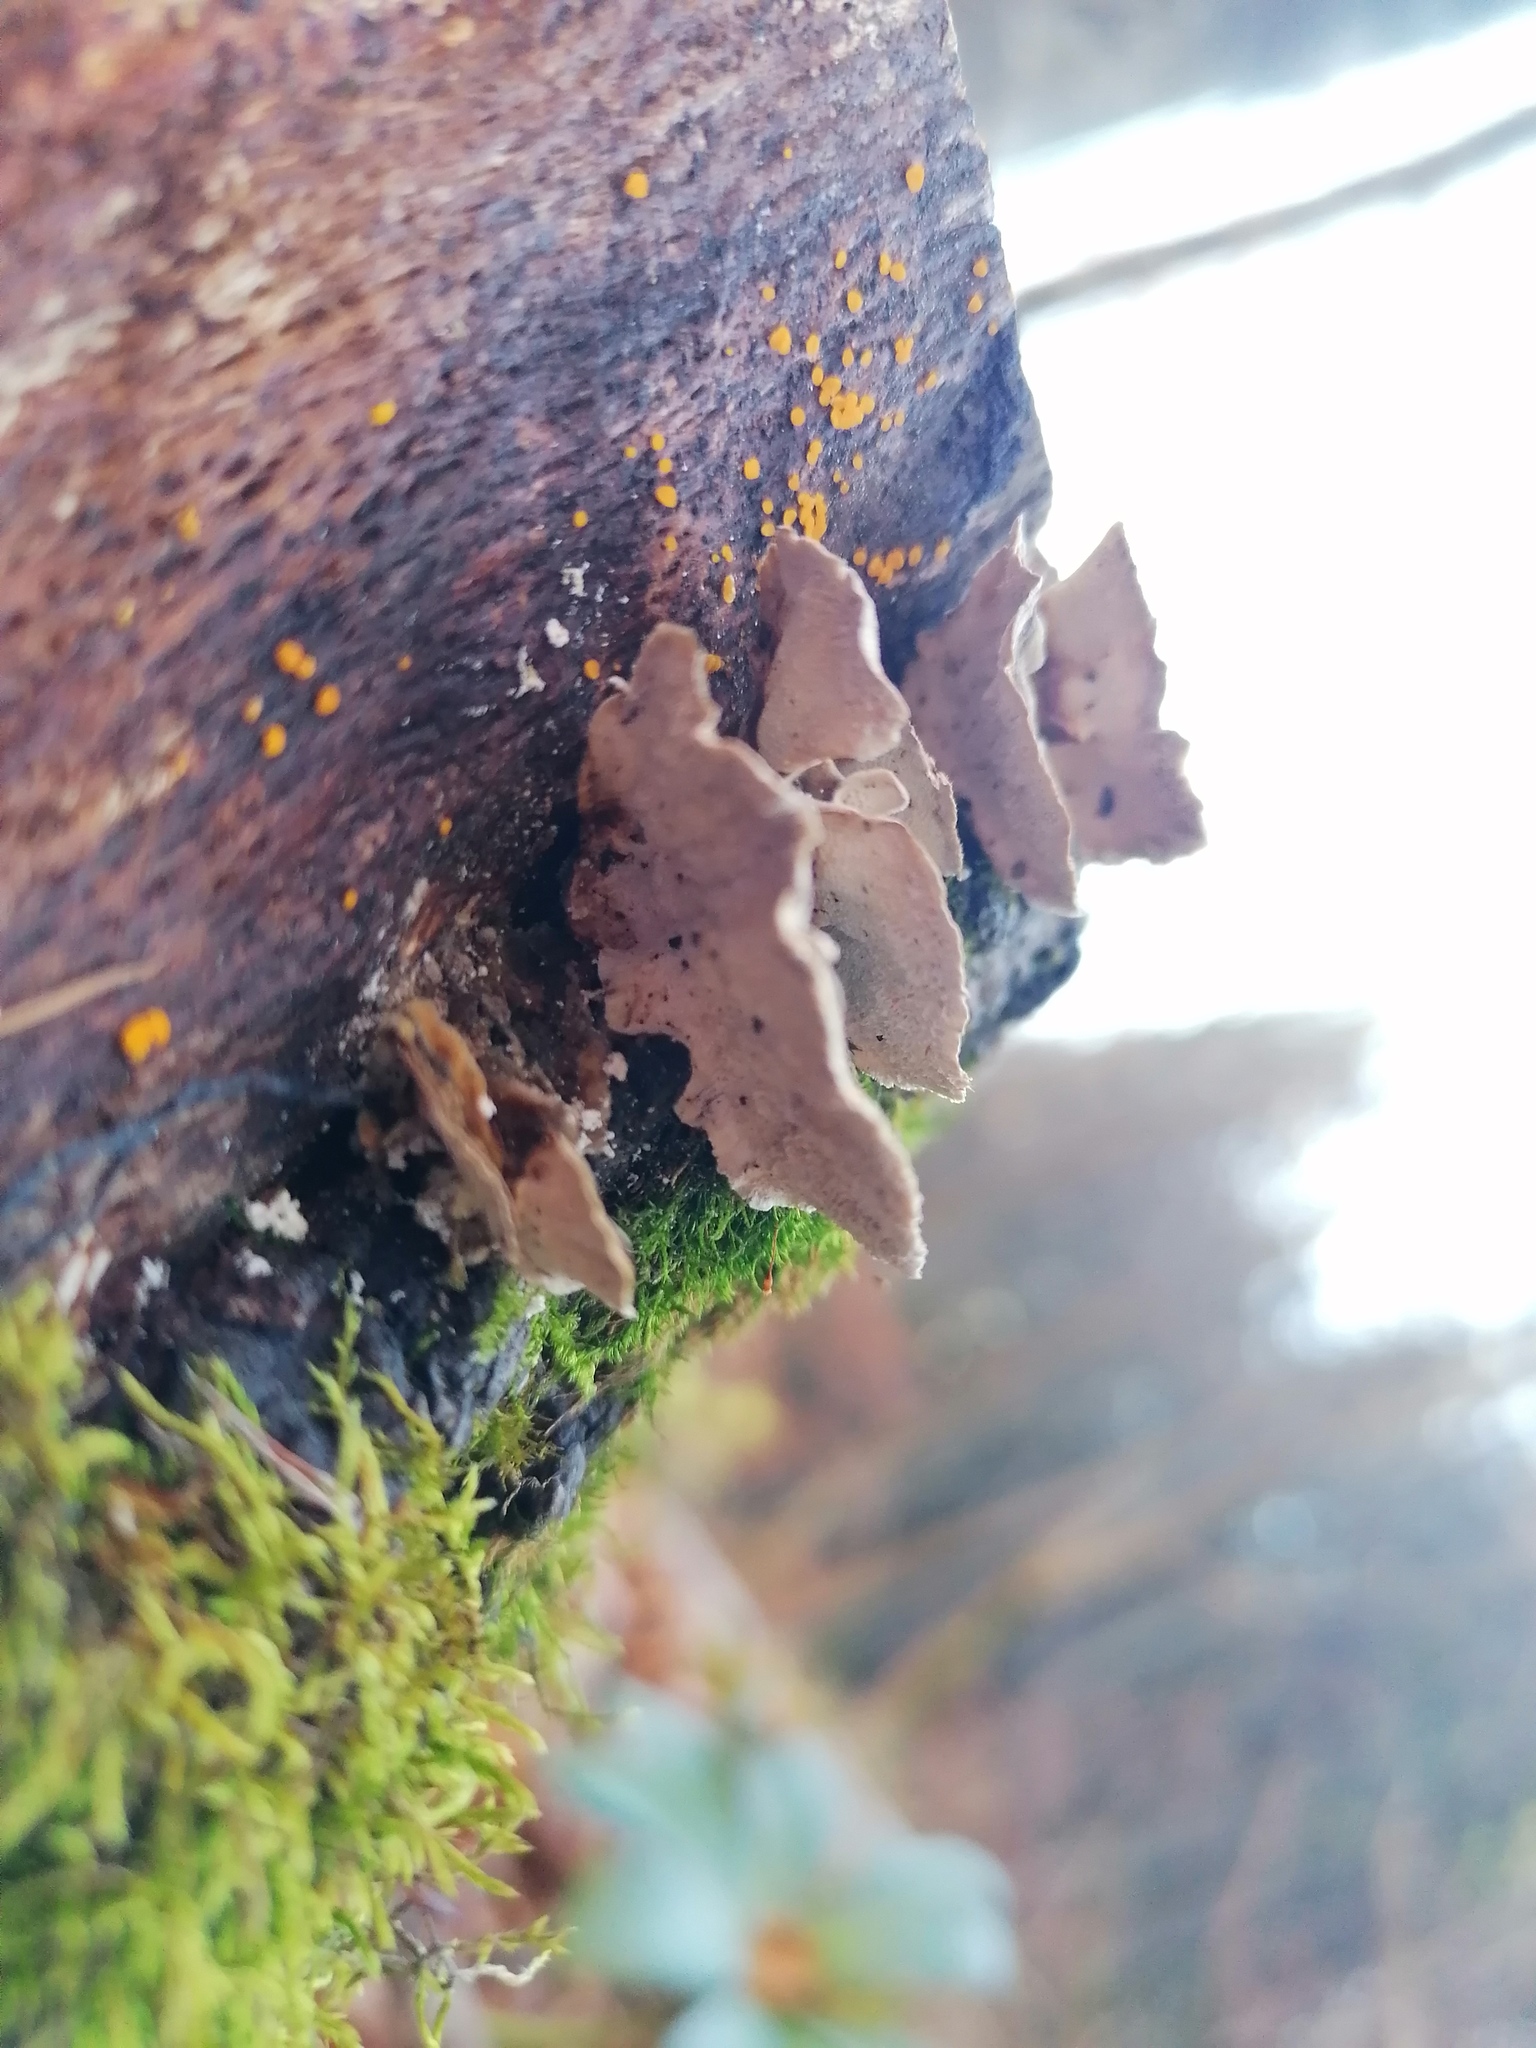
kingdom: Fungi
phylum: Basidiomycota
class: Agaricomycetes
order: Polyporales
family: Polyporaceae
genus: Trametes
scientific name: Trametes versicolor
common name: Turkeytail
